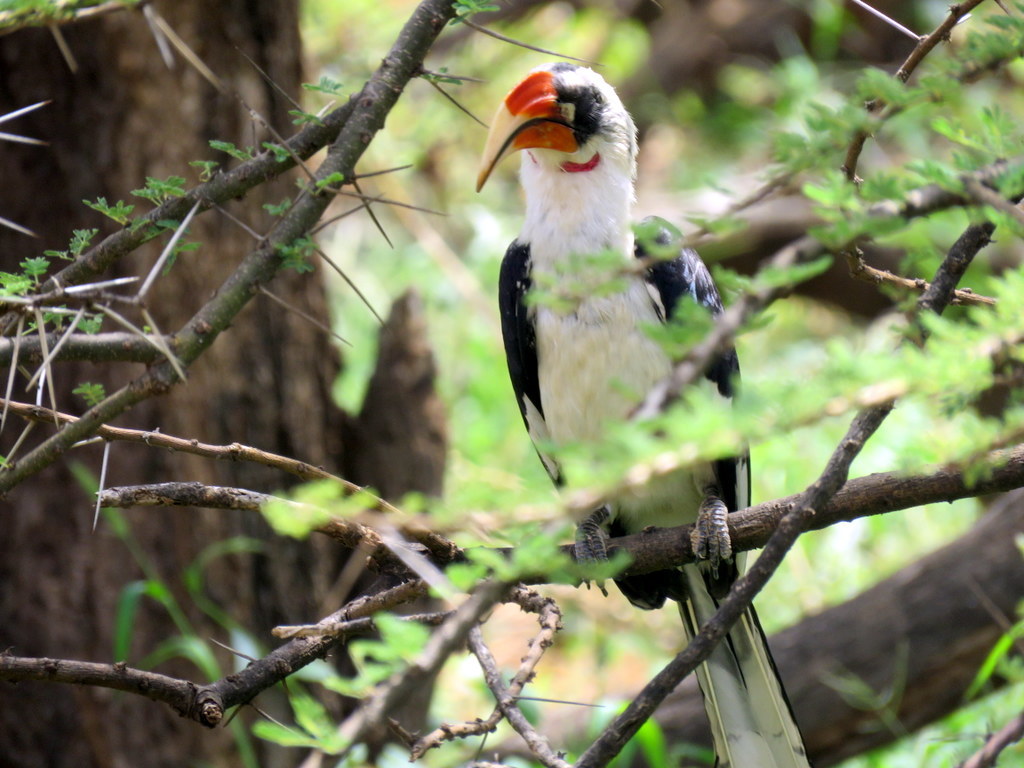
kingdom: Animalia
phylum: Chordata
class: Aves
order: Bucerotiformes
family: Bucerotidae
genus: Tockus
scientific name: Tockus deckeni
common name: Von der decken's hornbill
